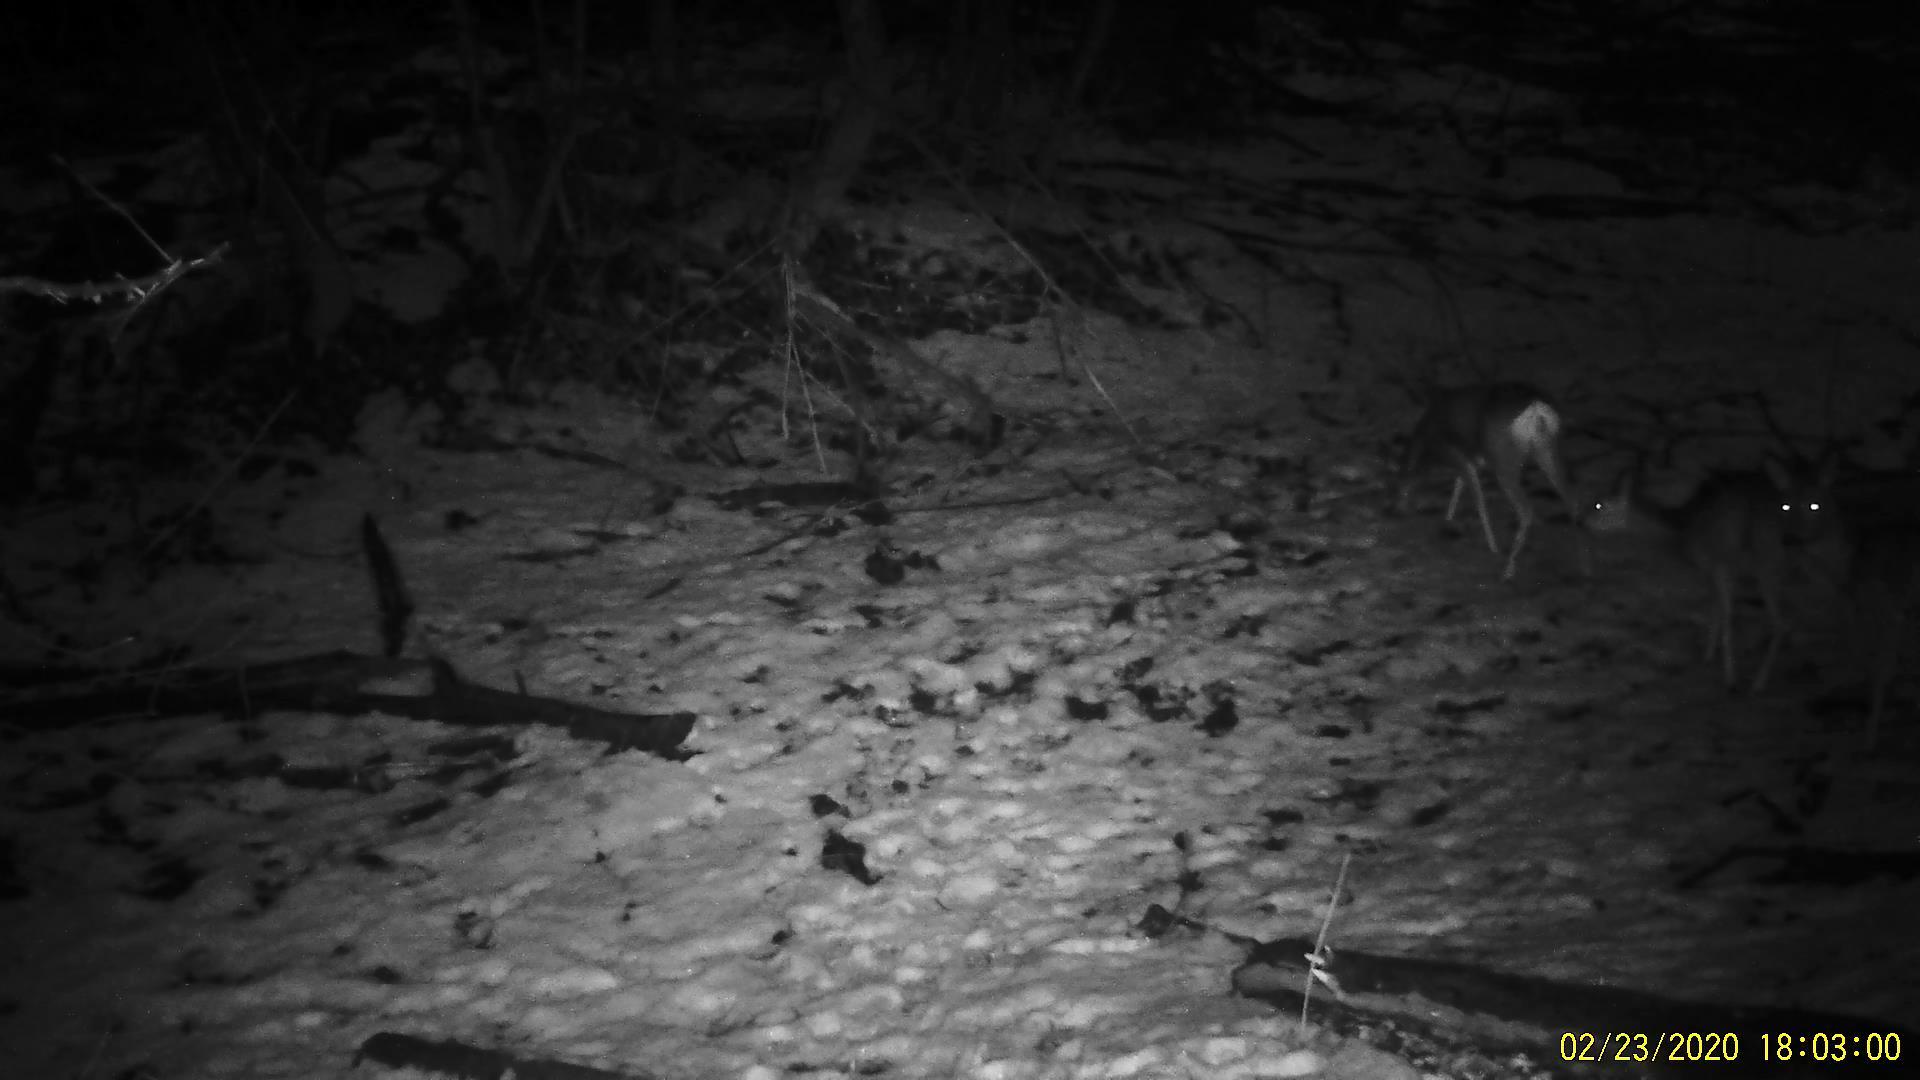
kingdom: Animalia
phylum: Chordata
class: Mammalia
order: Artiodactyla
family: Cervidae
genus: Capreolus
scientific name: Capreolus pygargus
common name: Siberian roe
